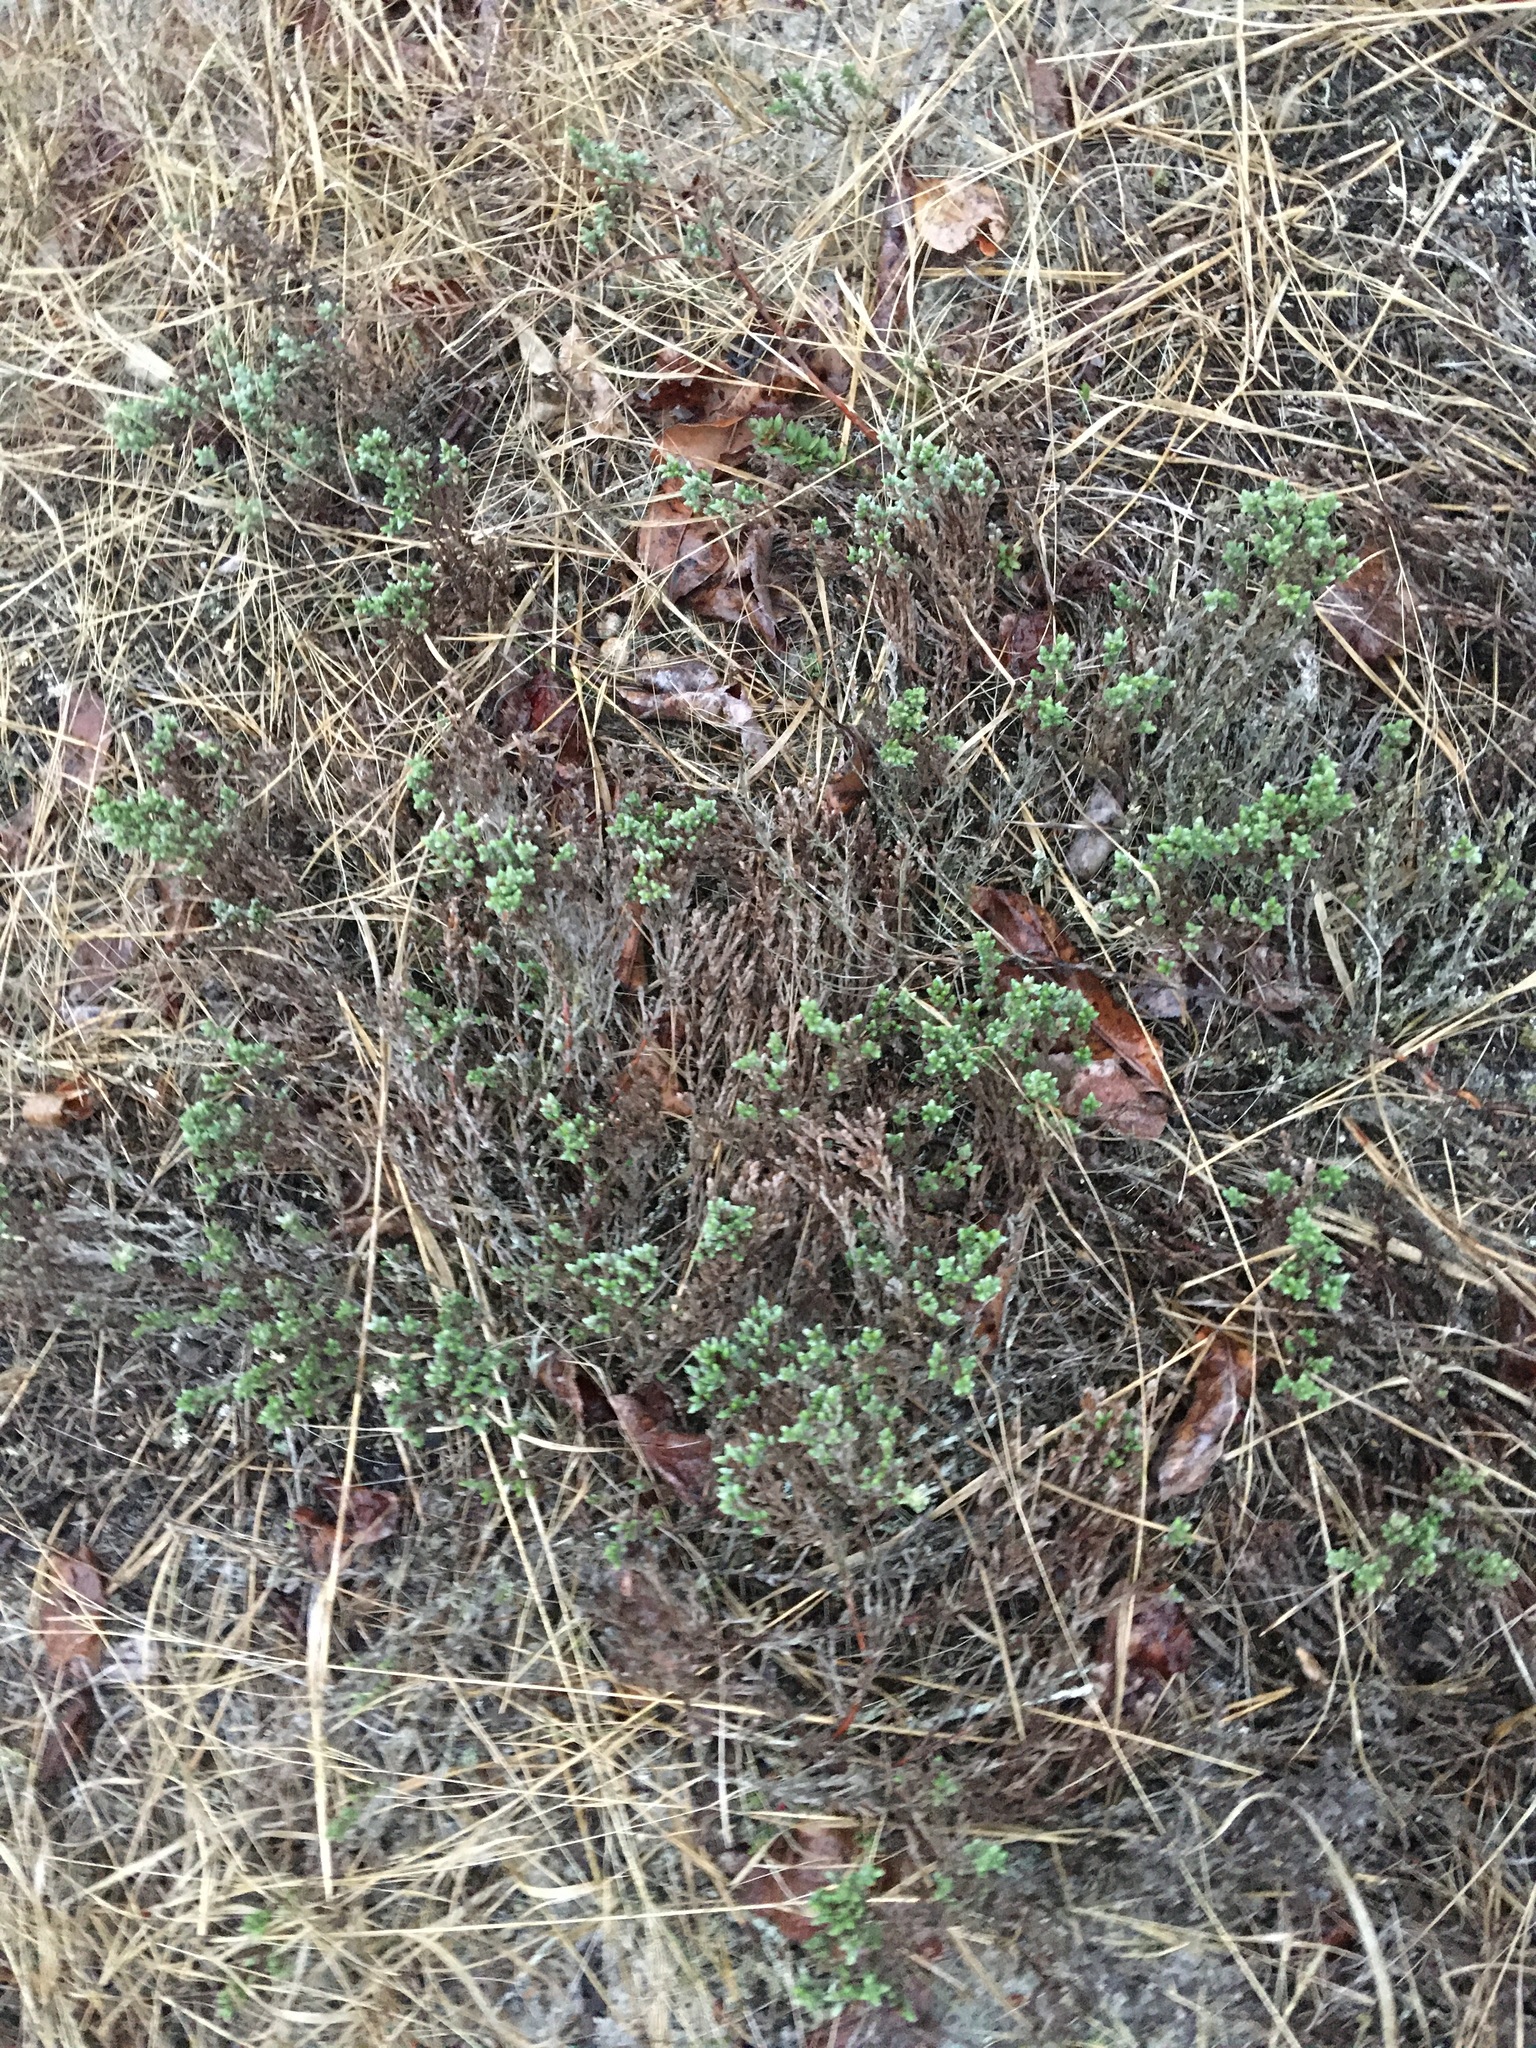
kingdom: Plantae
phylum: Tracheophyta
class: Magnoliopsida
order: Malvales
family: Cistaceae
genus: Hudsonia
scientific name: Hudsonia tomentosa
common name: Beach-heath
